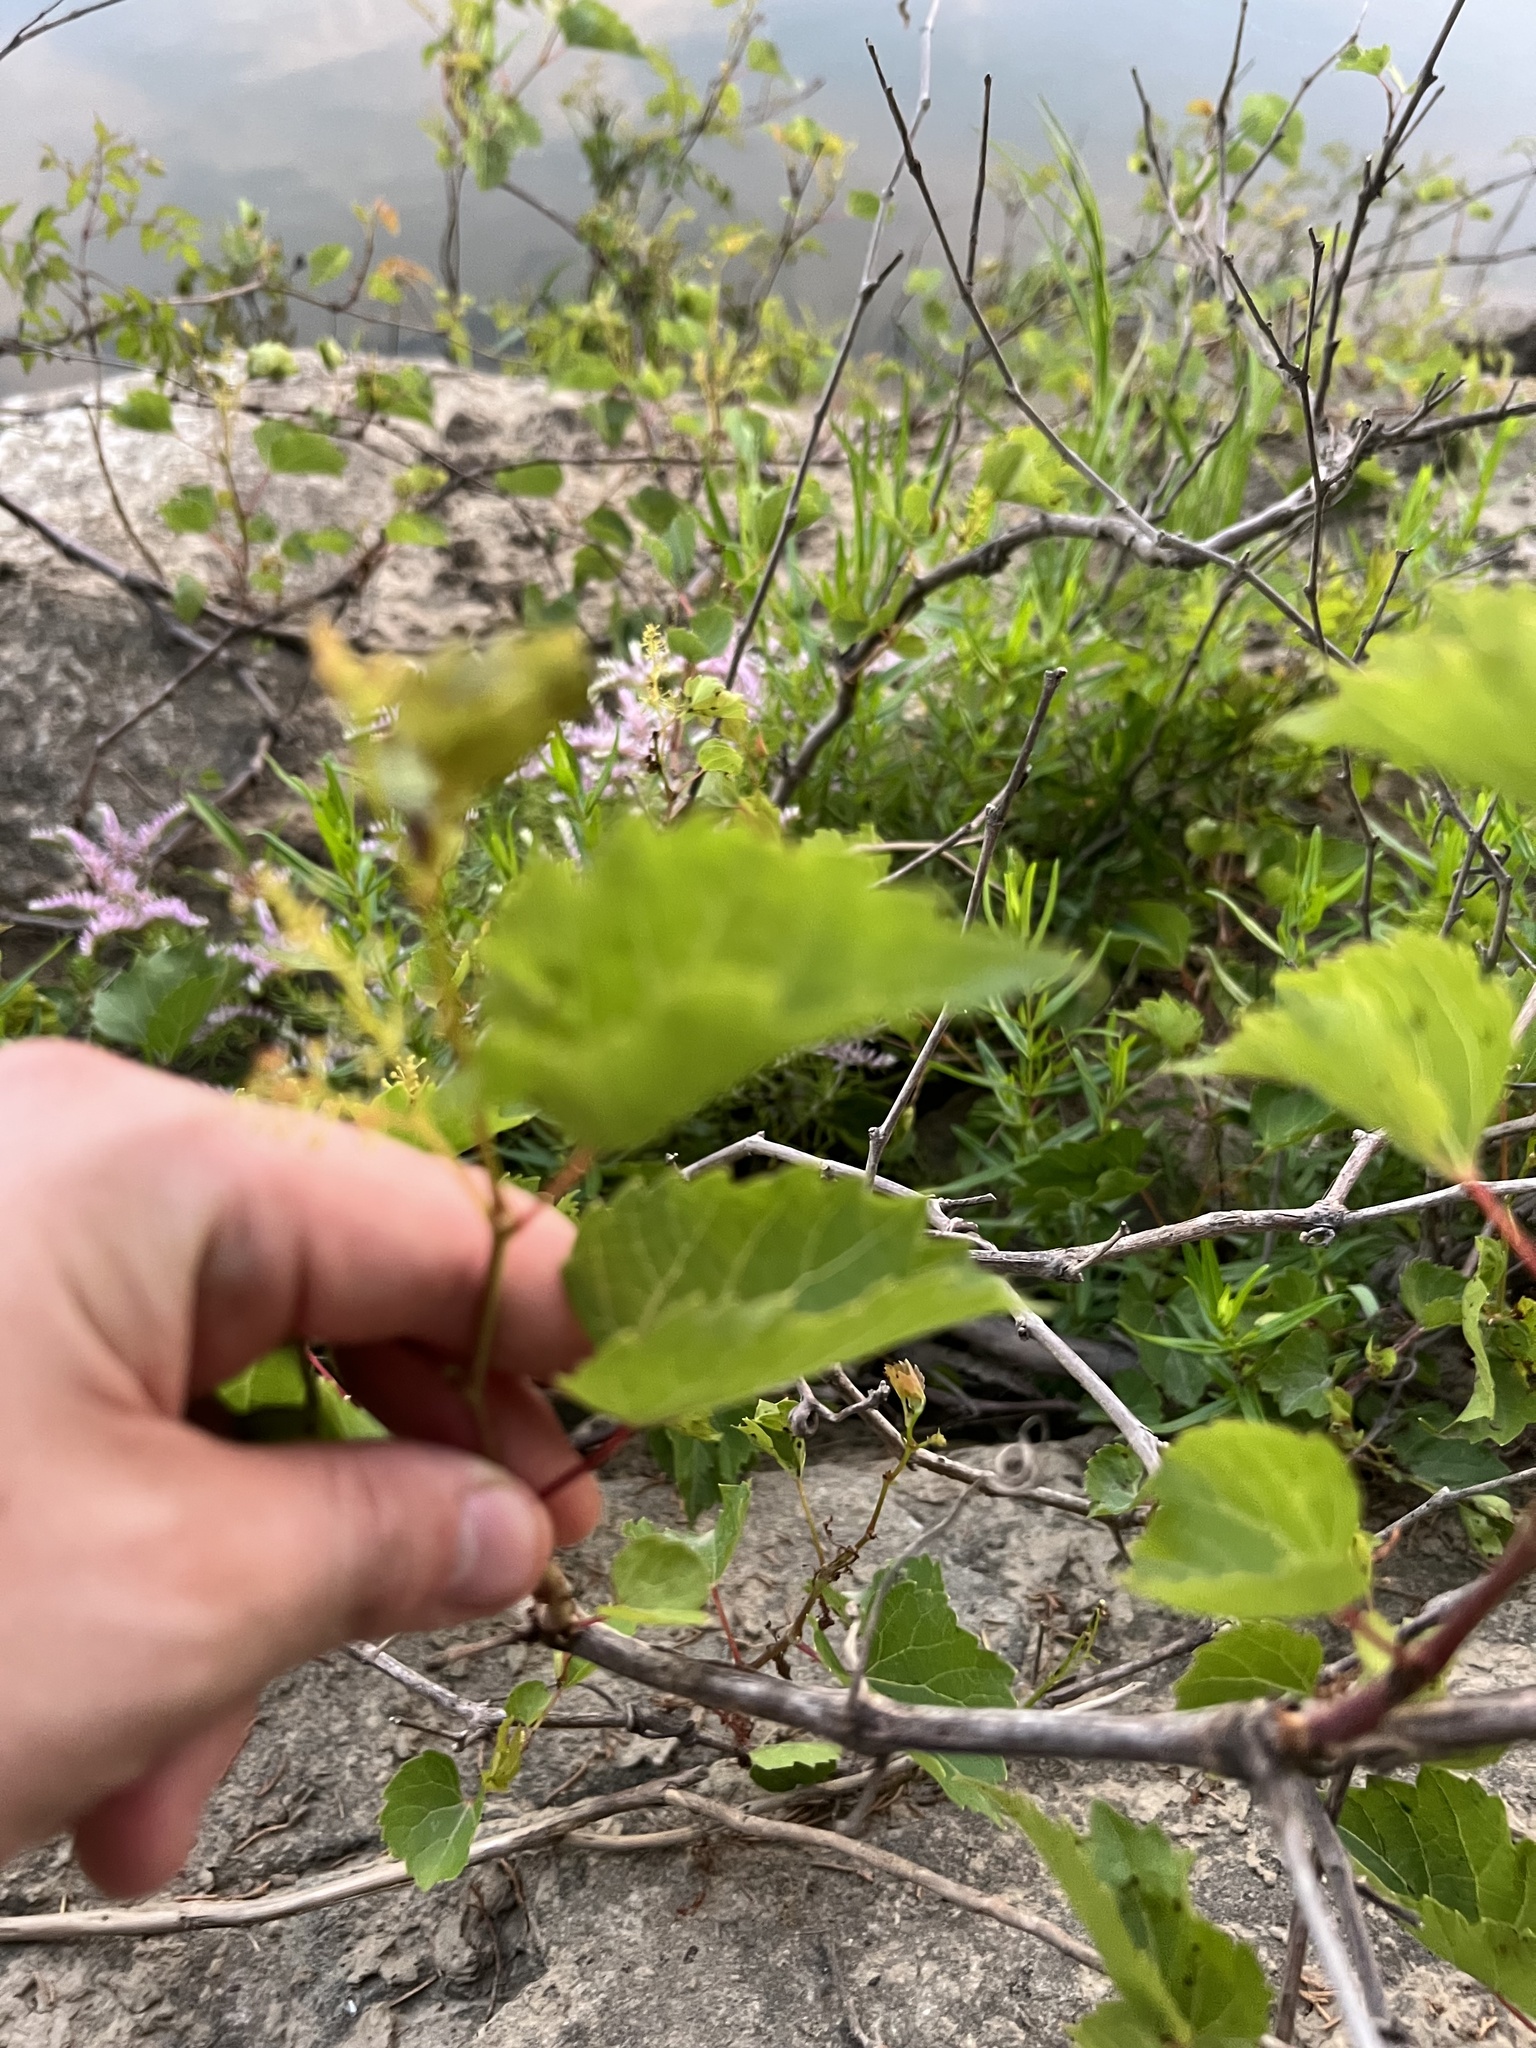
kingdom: Plantae
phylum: Tracheophyta
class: Magnoliopsida
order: Vitales
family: Vitaceae
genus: Vitis
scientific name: Vitis rupestris
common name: Rock grape
